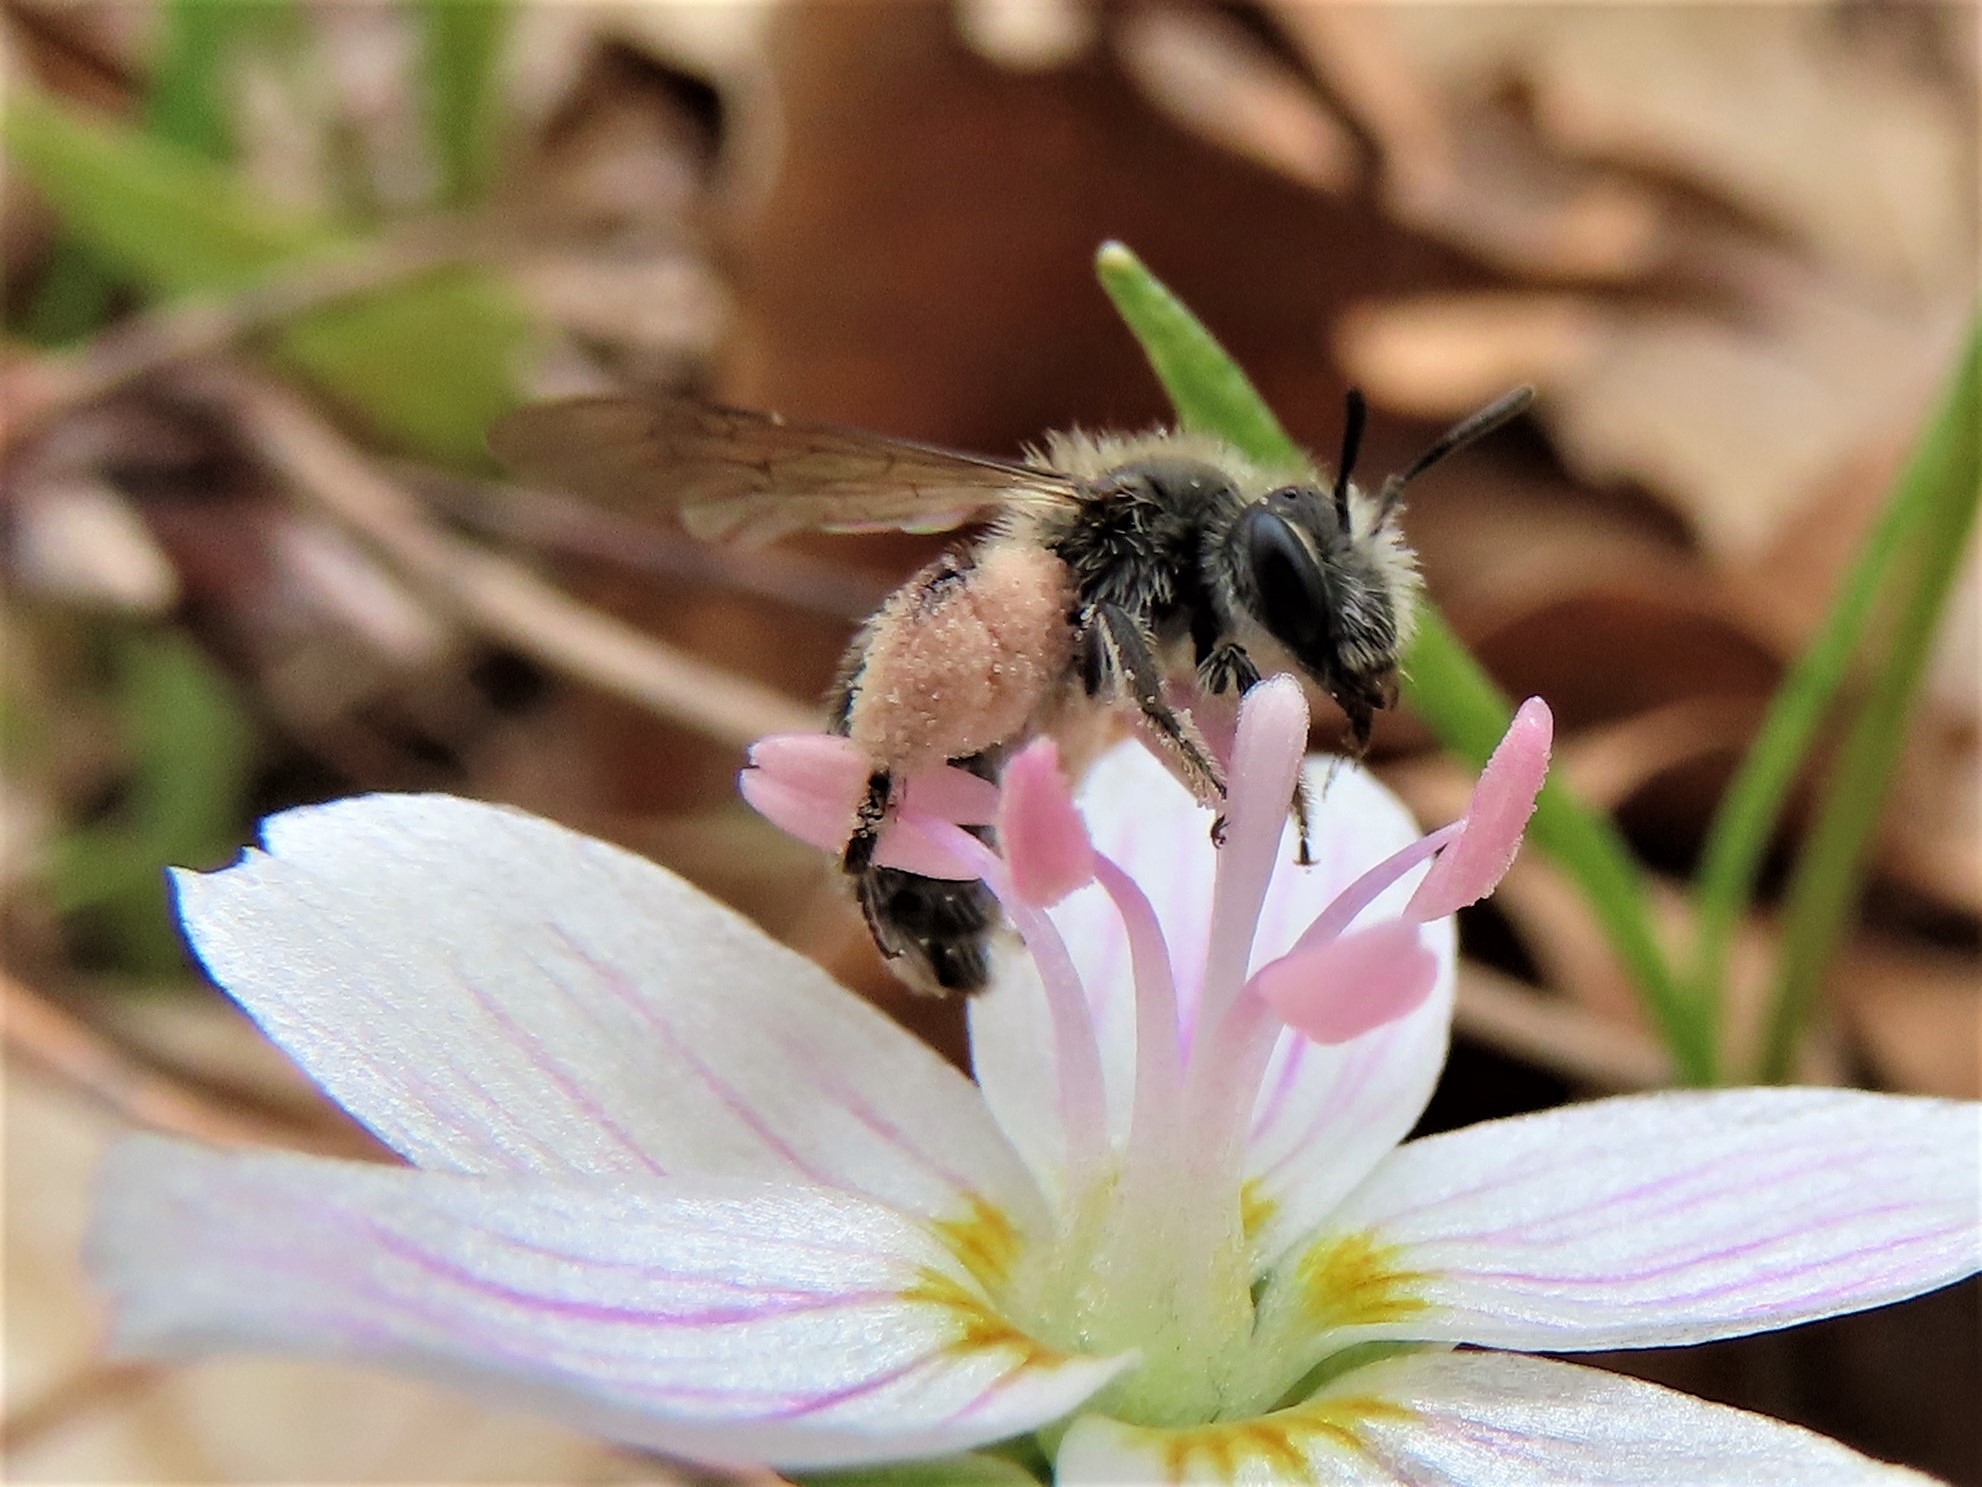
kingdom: Animalia
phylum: Arthropoda
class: Insecta
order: Hymenoptera
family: Andrenidae
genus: Andrena
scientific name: Andrena erigeniae
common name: Spring beauty miner
